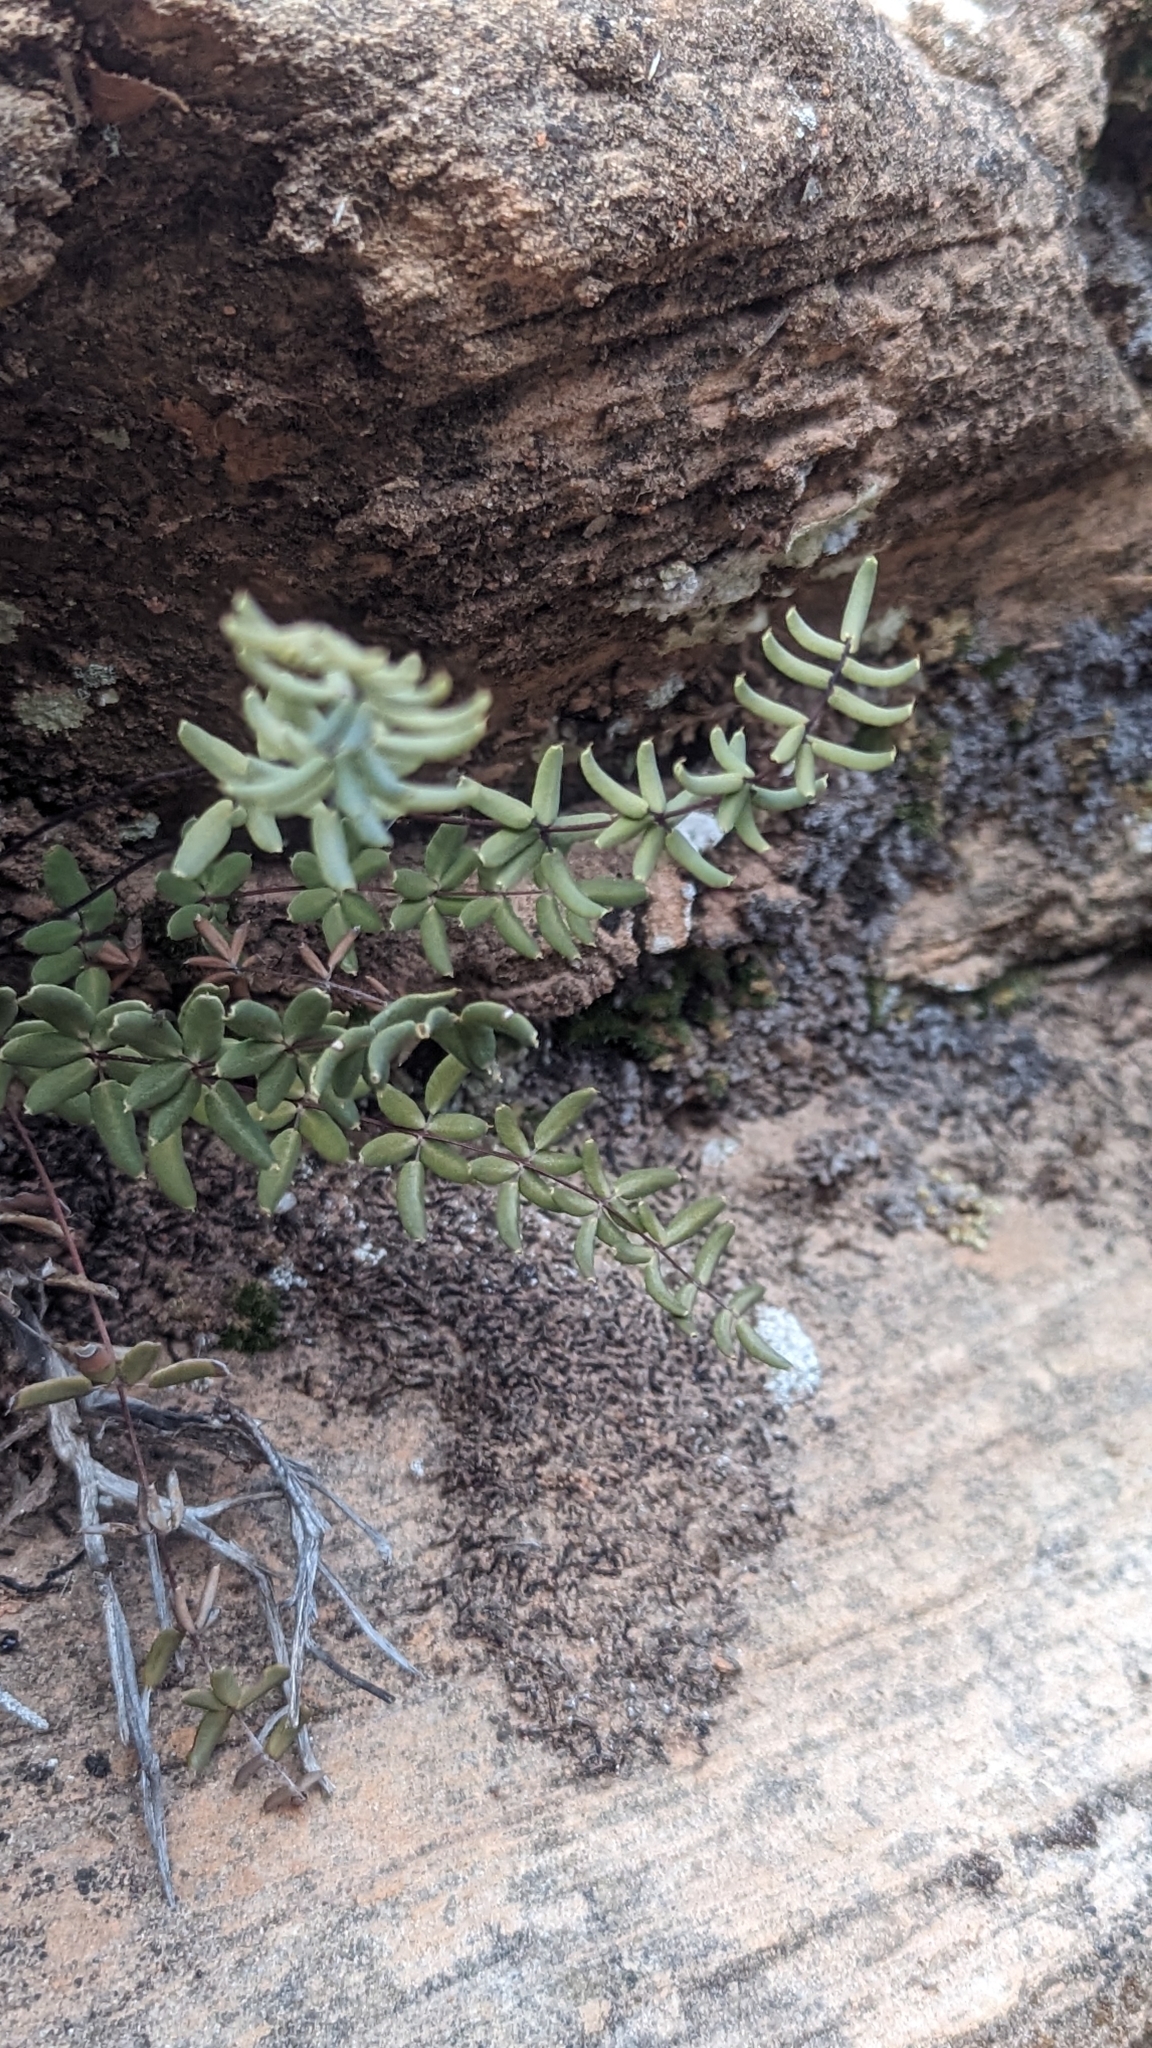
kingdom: Plantae
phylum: Tracheophyta
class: Polypodiopsida
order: Polypodiales
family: Pteridaceae
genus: Pellaea
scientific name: Pellaea wrightiana
